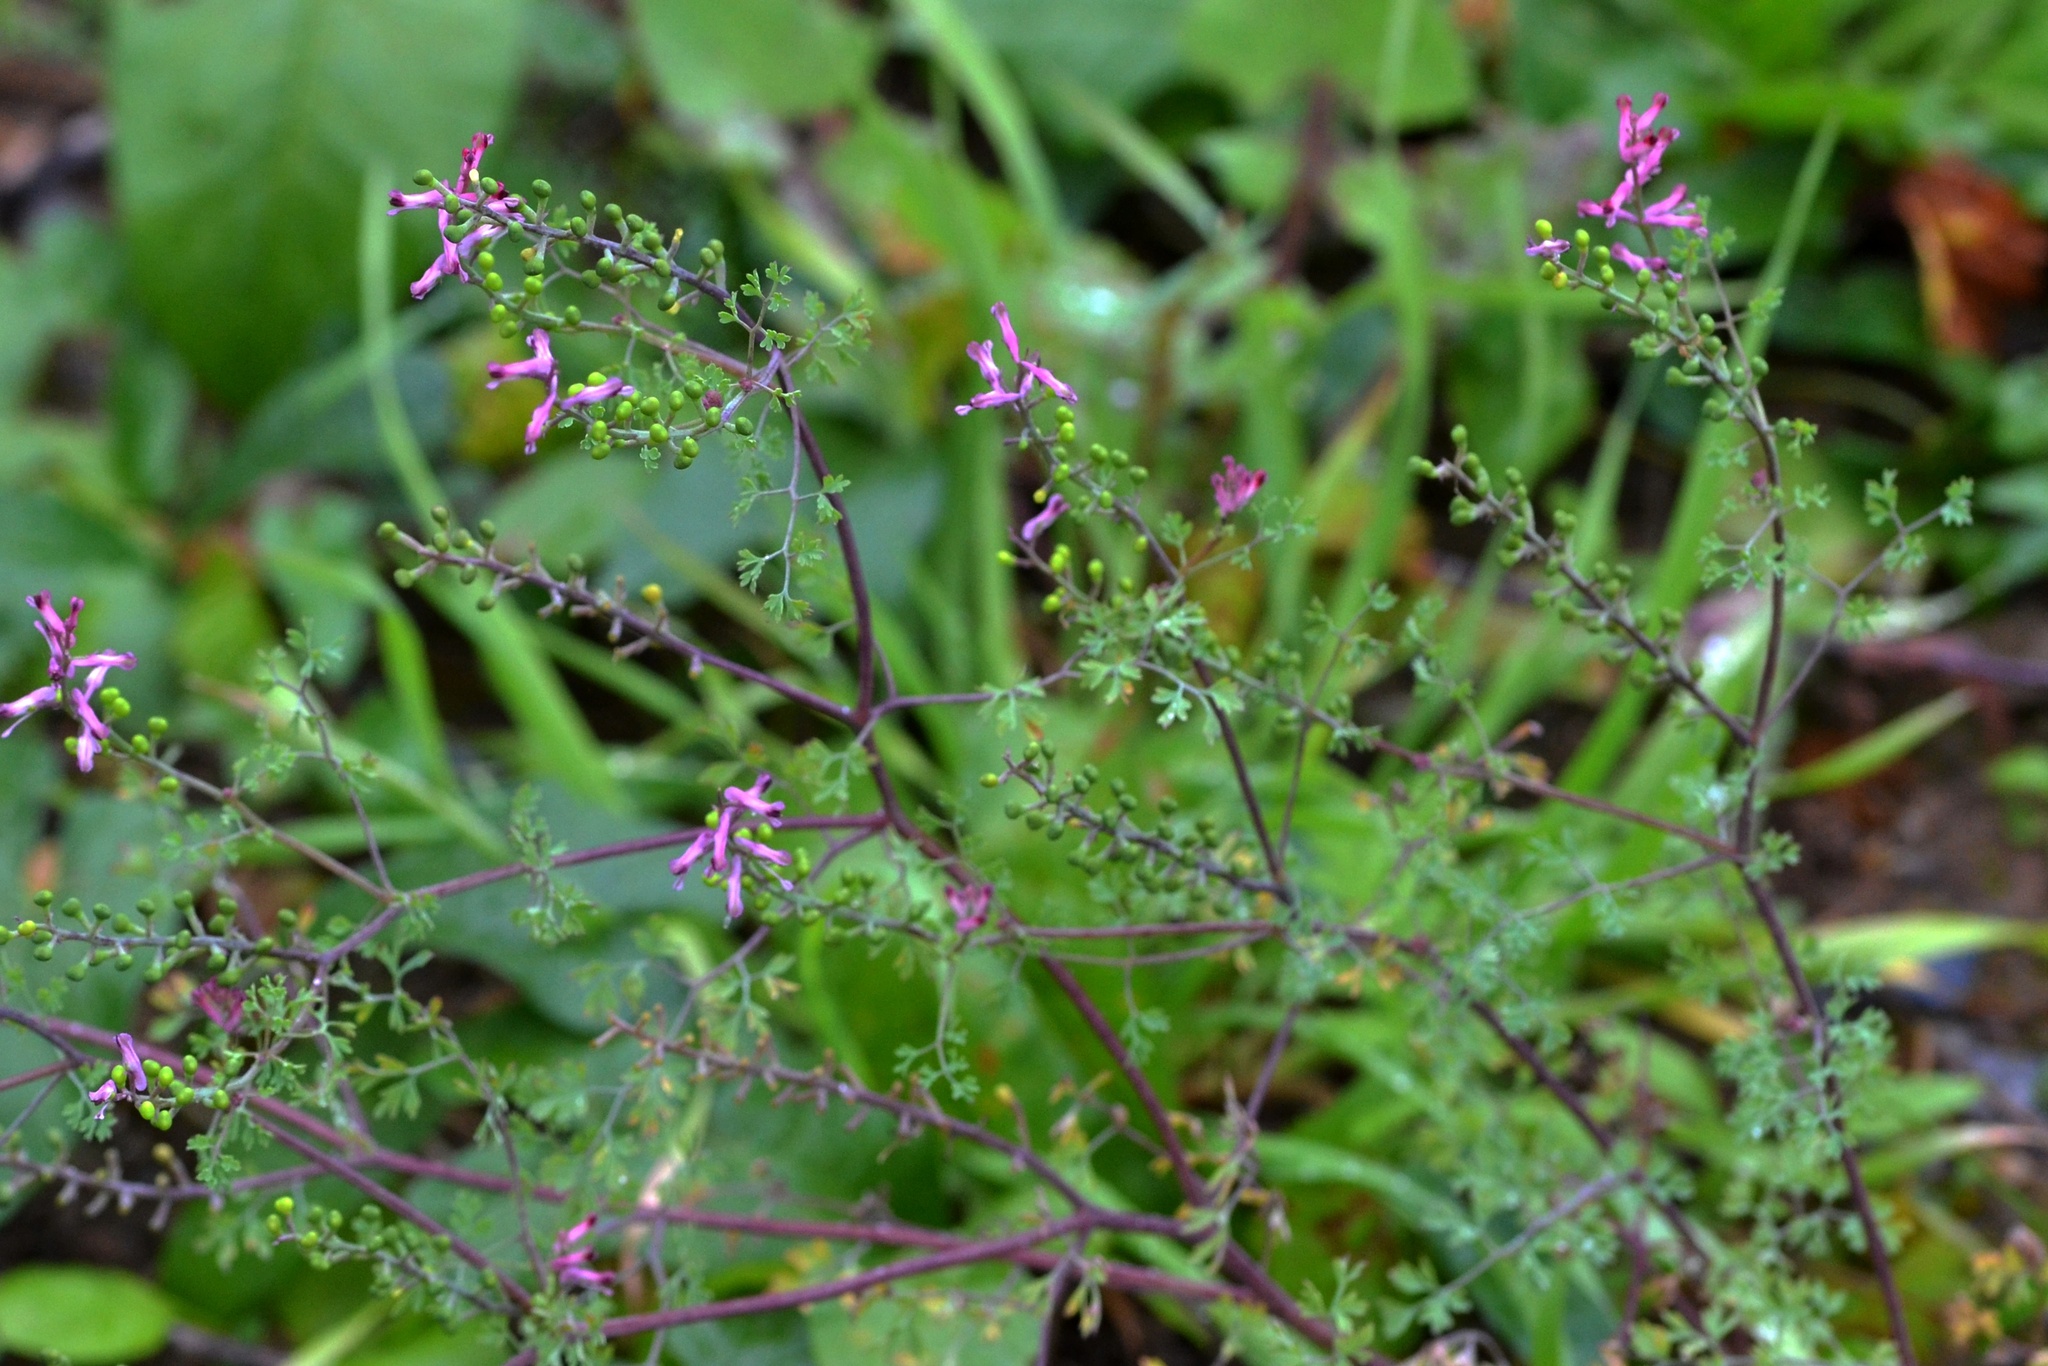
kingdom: Plantae
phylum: Tracheophyta
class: Magnoliopsida
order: Ranunculales
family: Papaveraceae
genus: Fumaria
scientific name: Fumaria officinalis
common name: Common fumitory
